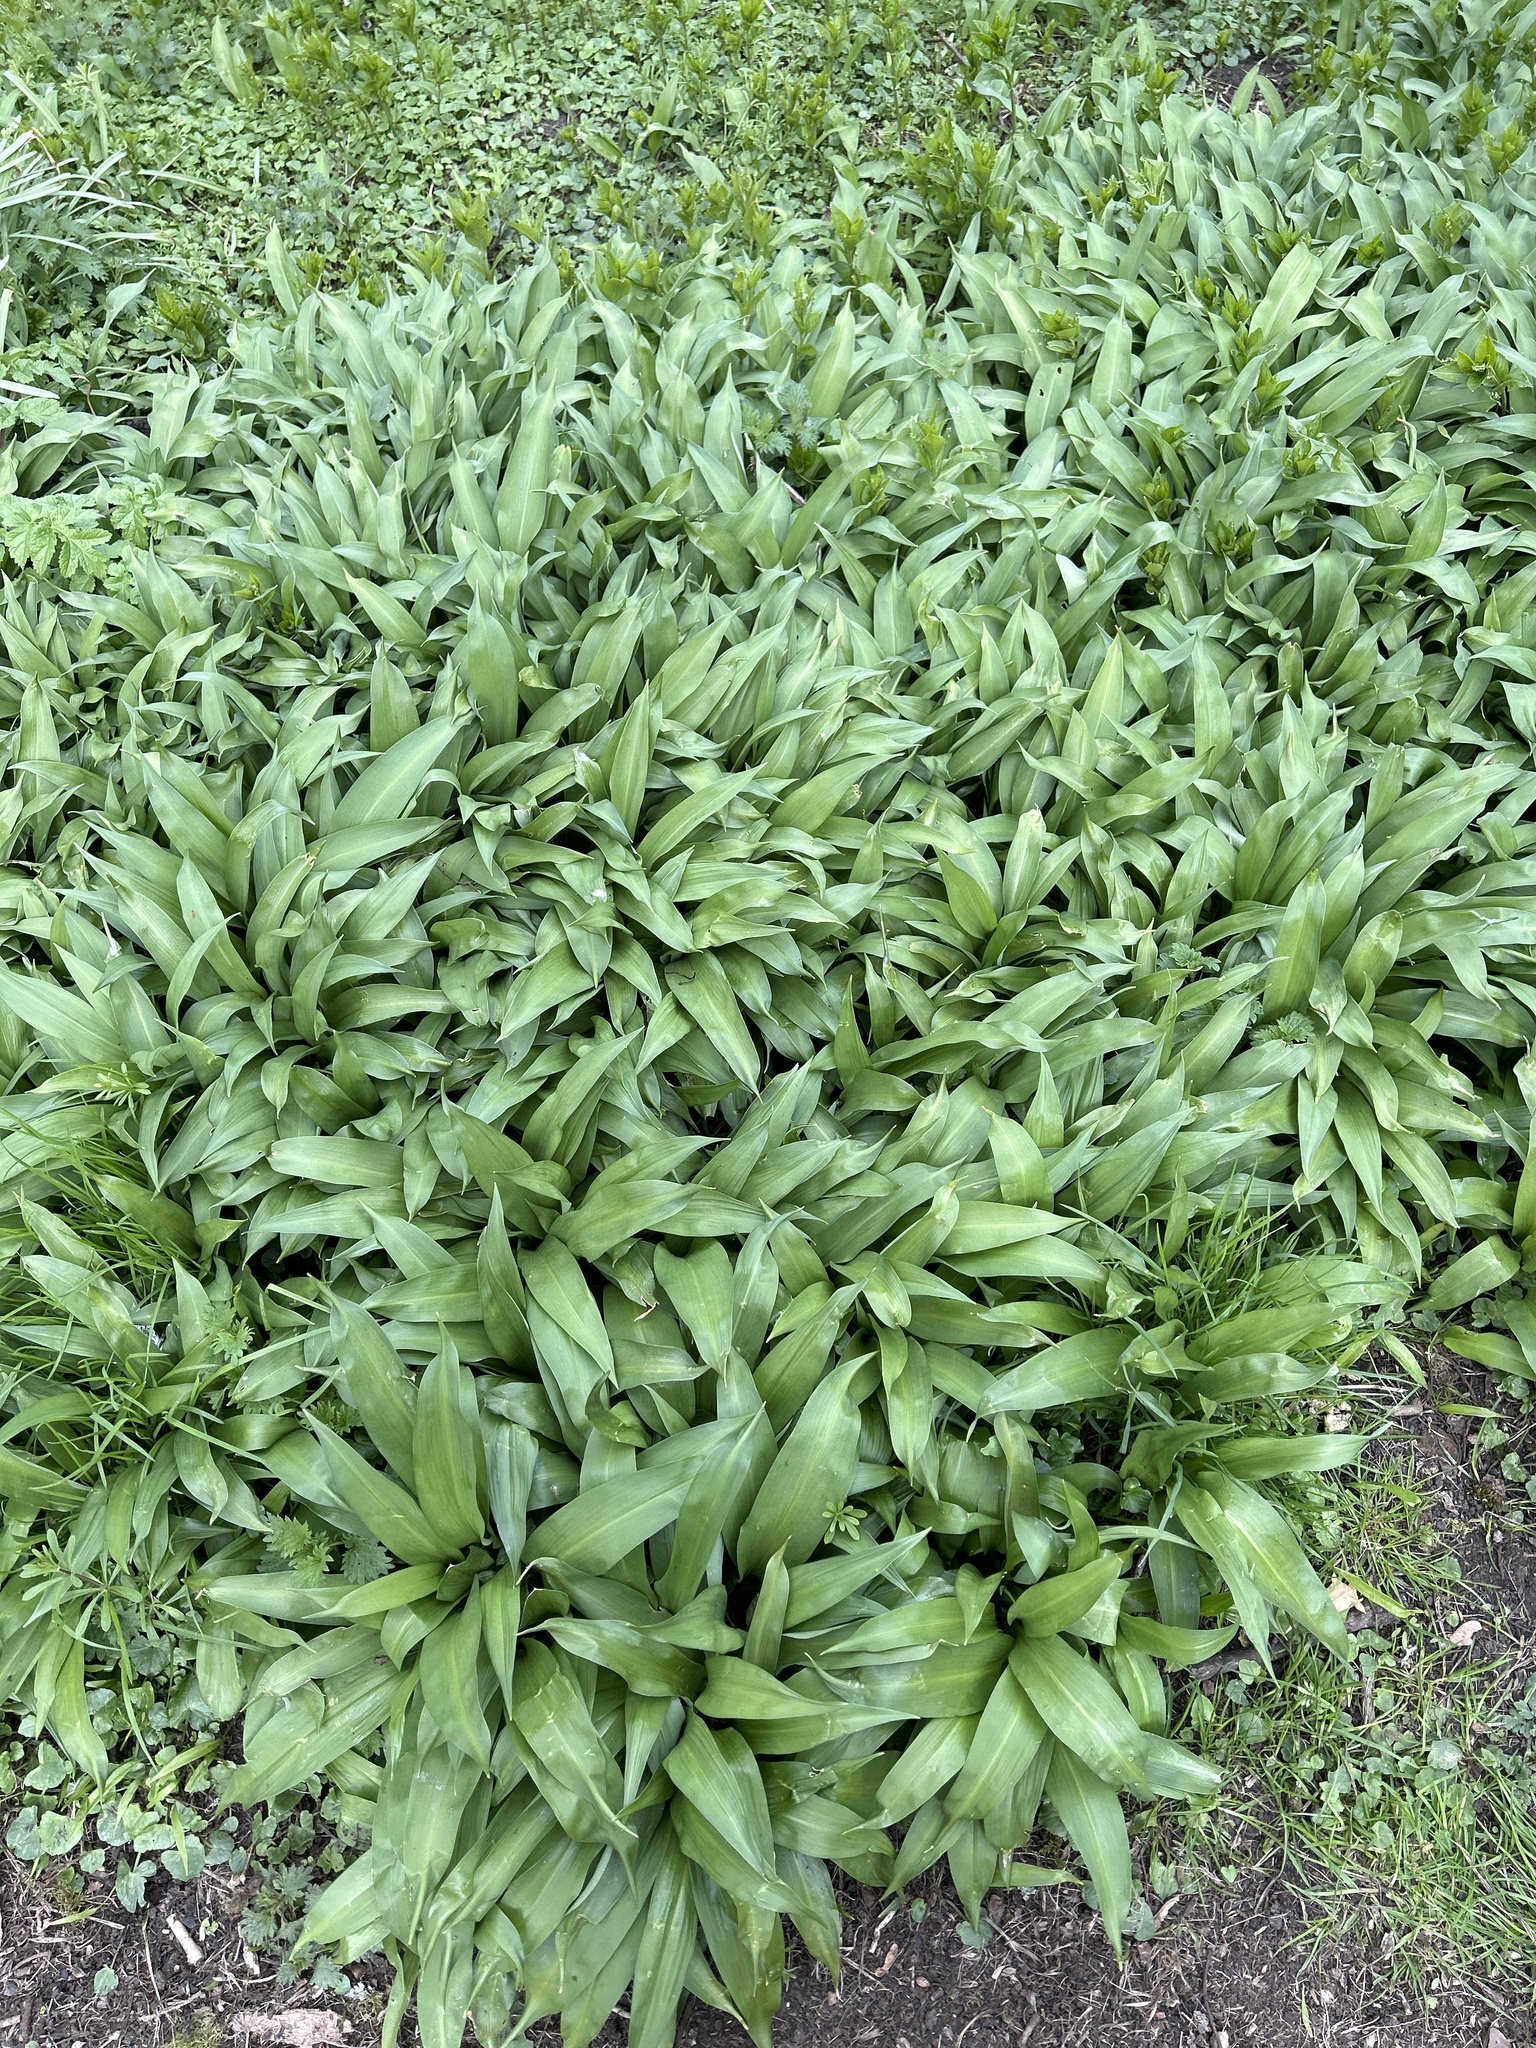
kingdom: Plantae
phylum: Tracheophyta
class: Liliopsida
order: Asparagales
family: Amaryllidaceae
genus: Allium
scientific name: Allium ursinum
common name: Ramsons
